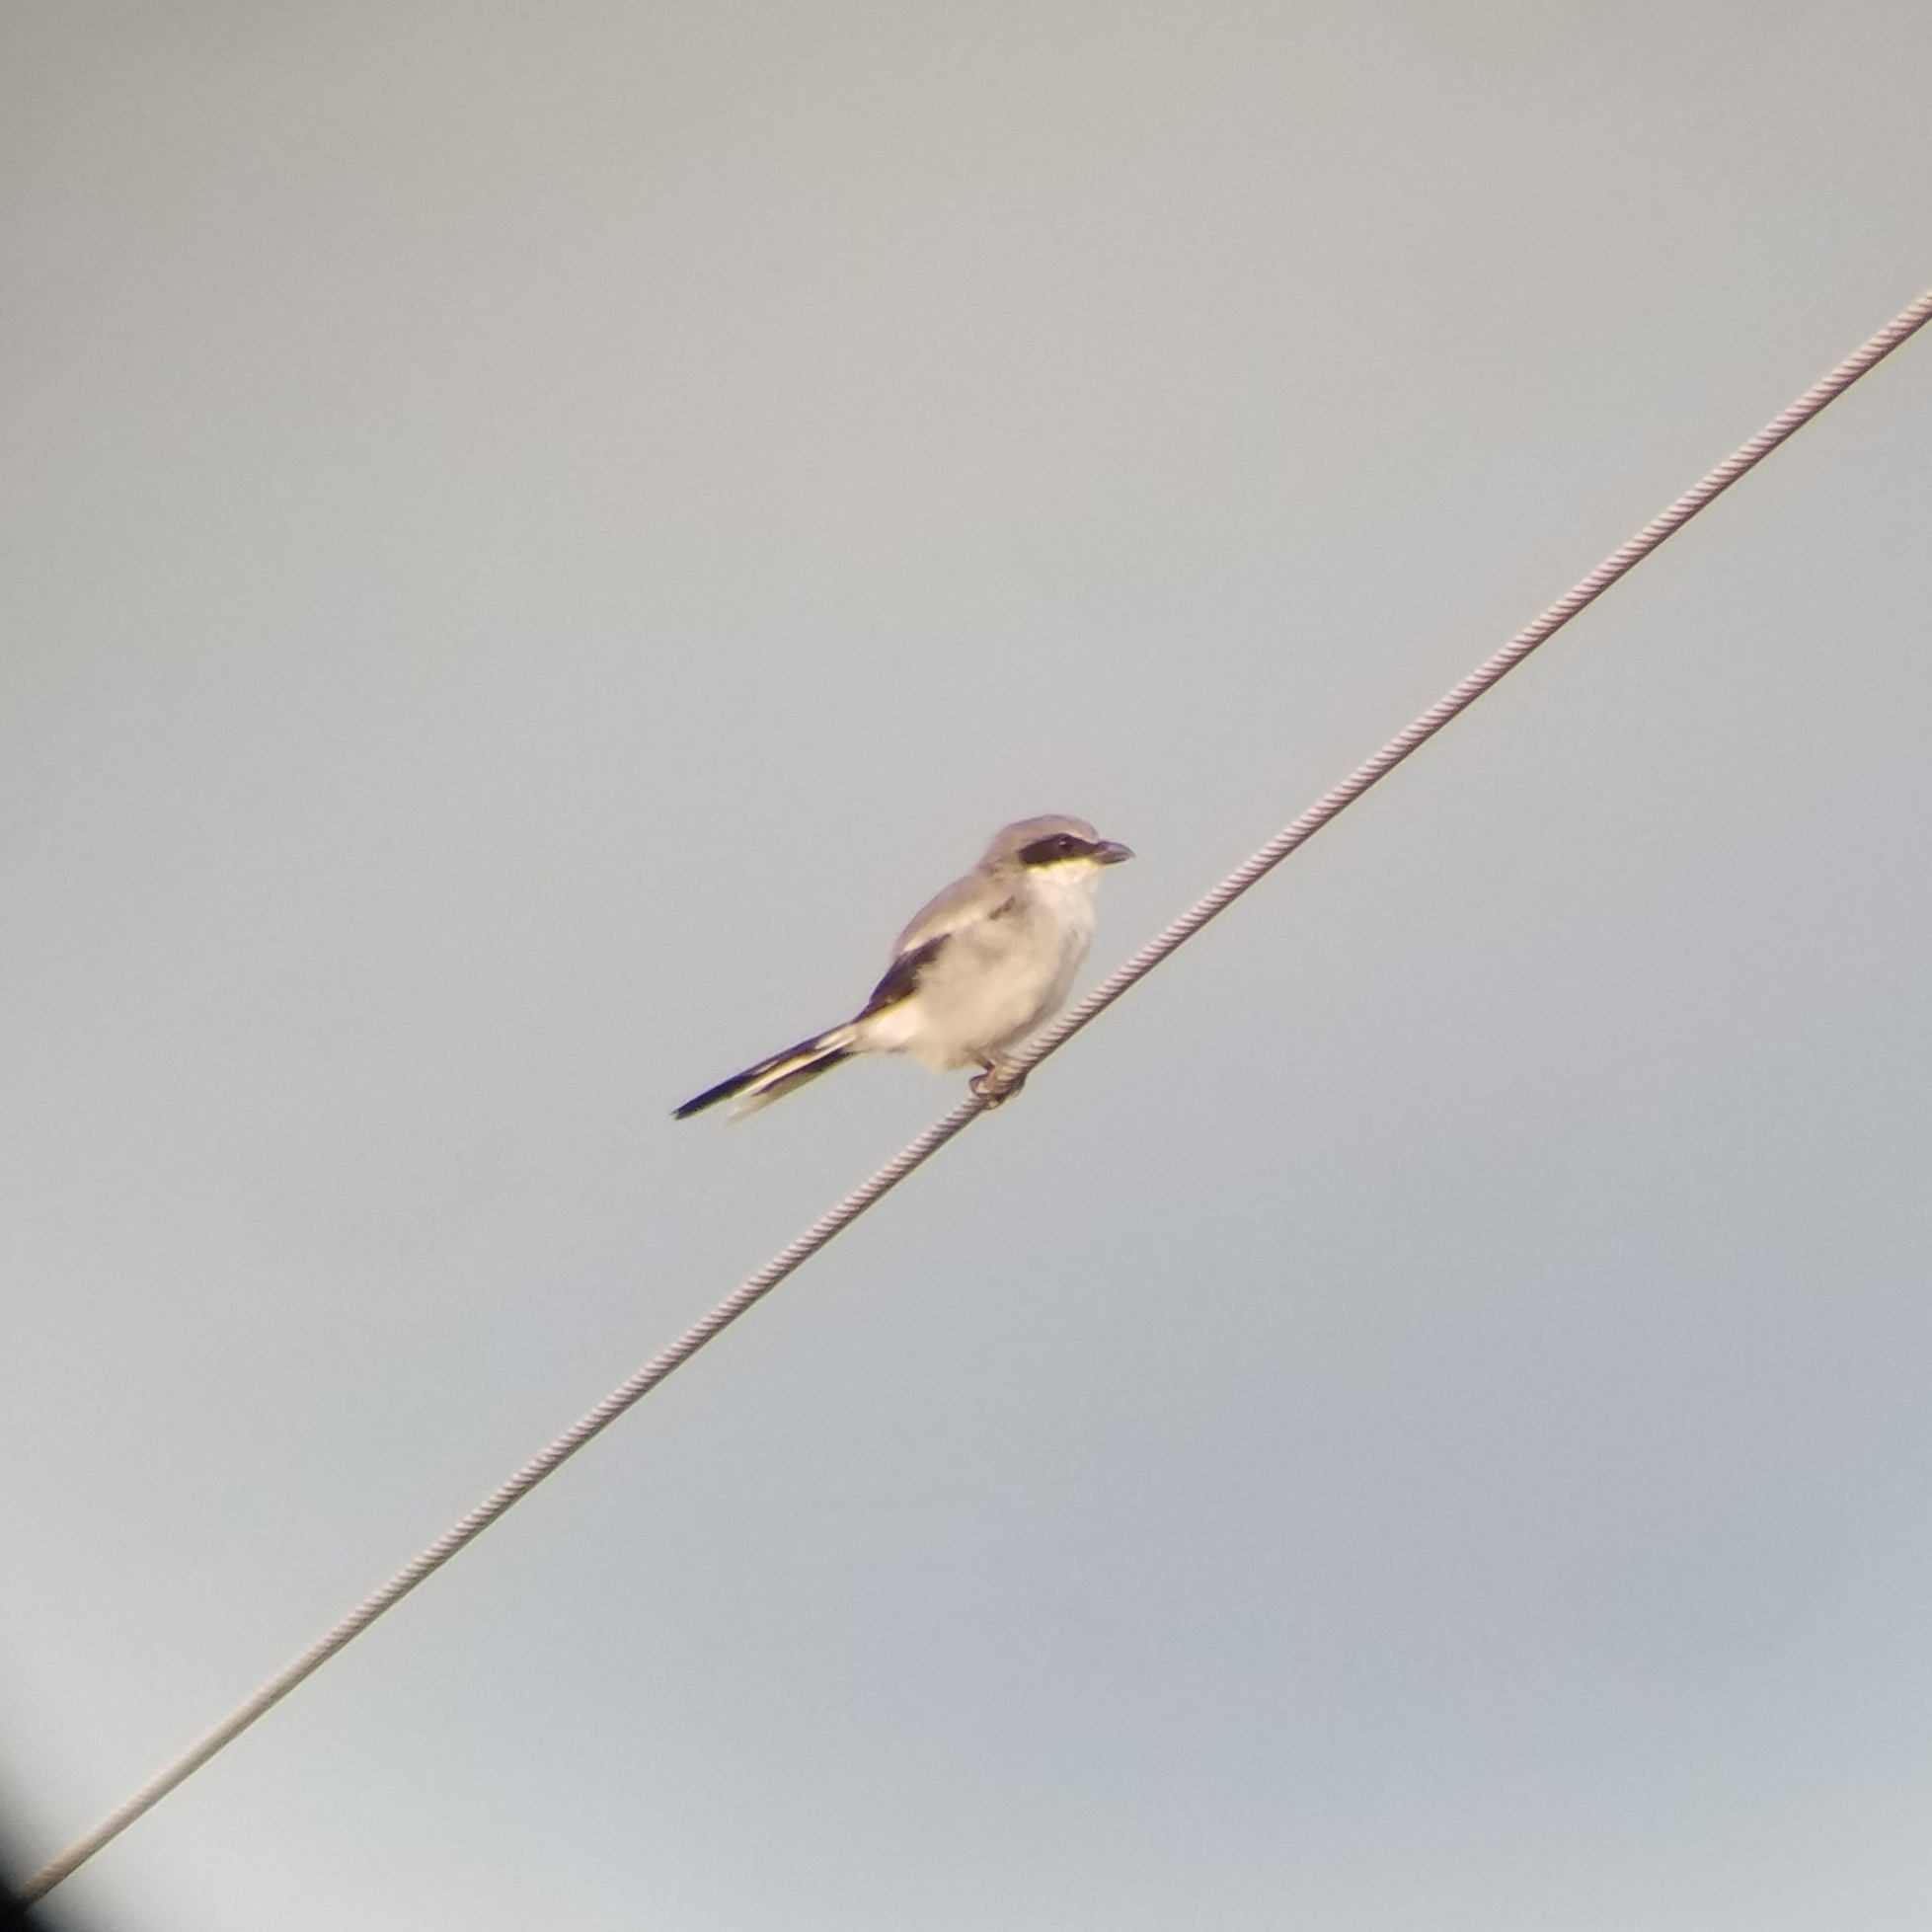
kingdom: Animalia
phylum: Chordata
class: Aves
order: Passeriformes
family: Laniidae
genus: Lanius
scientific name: Lanius ludovicianus
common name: Loggerhead shrike
